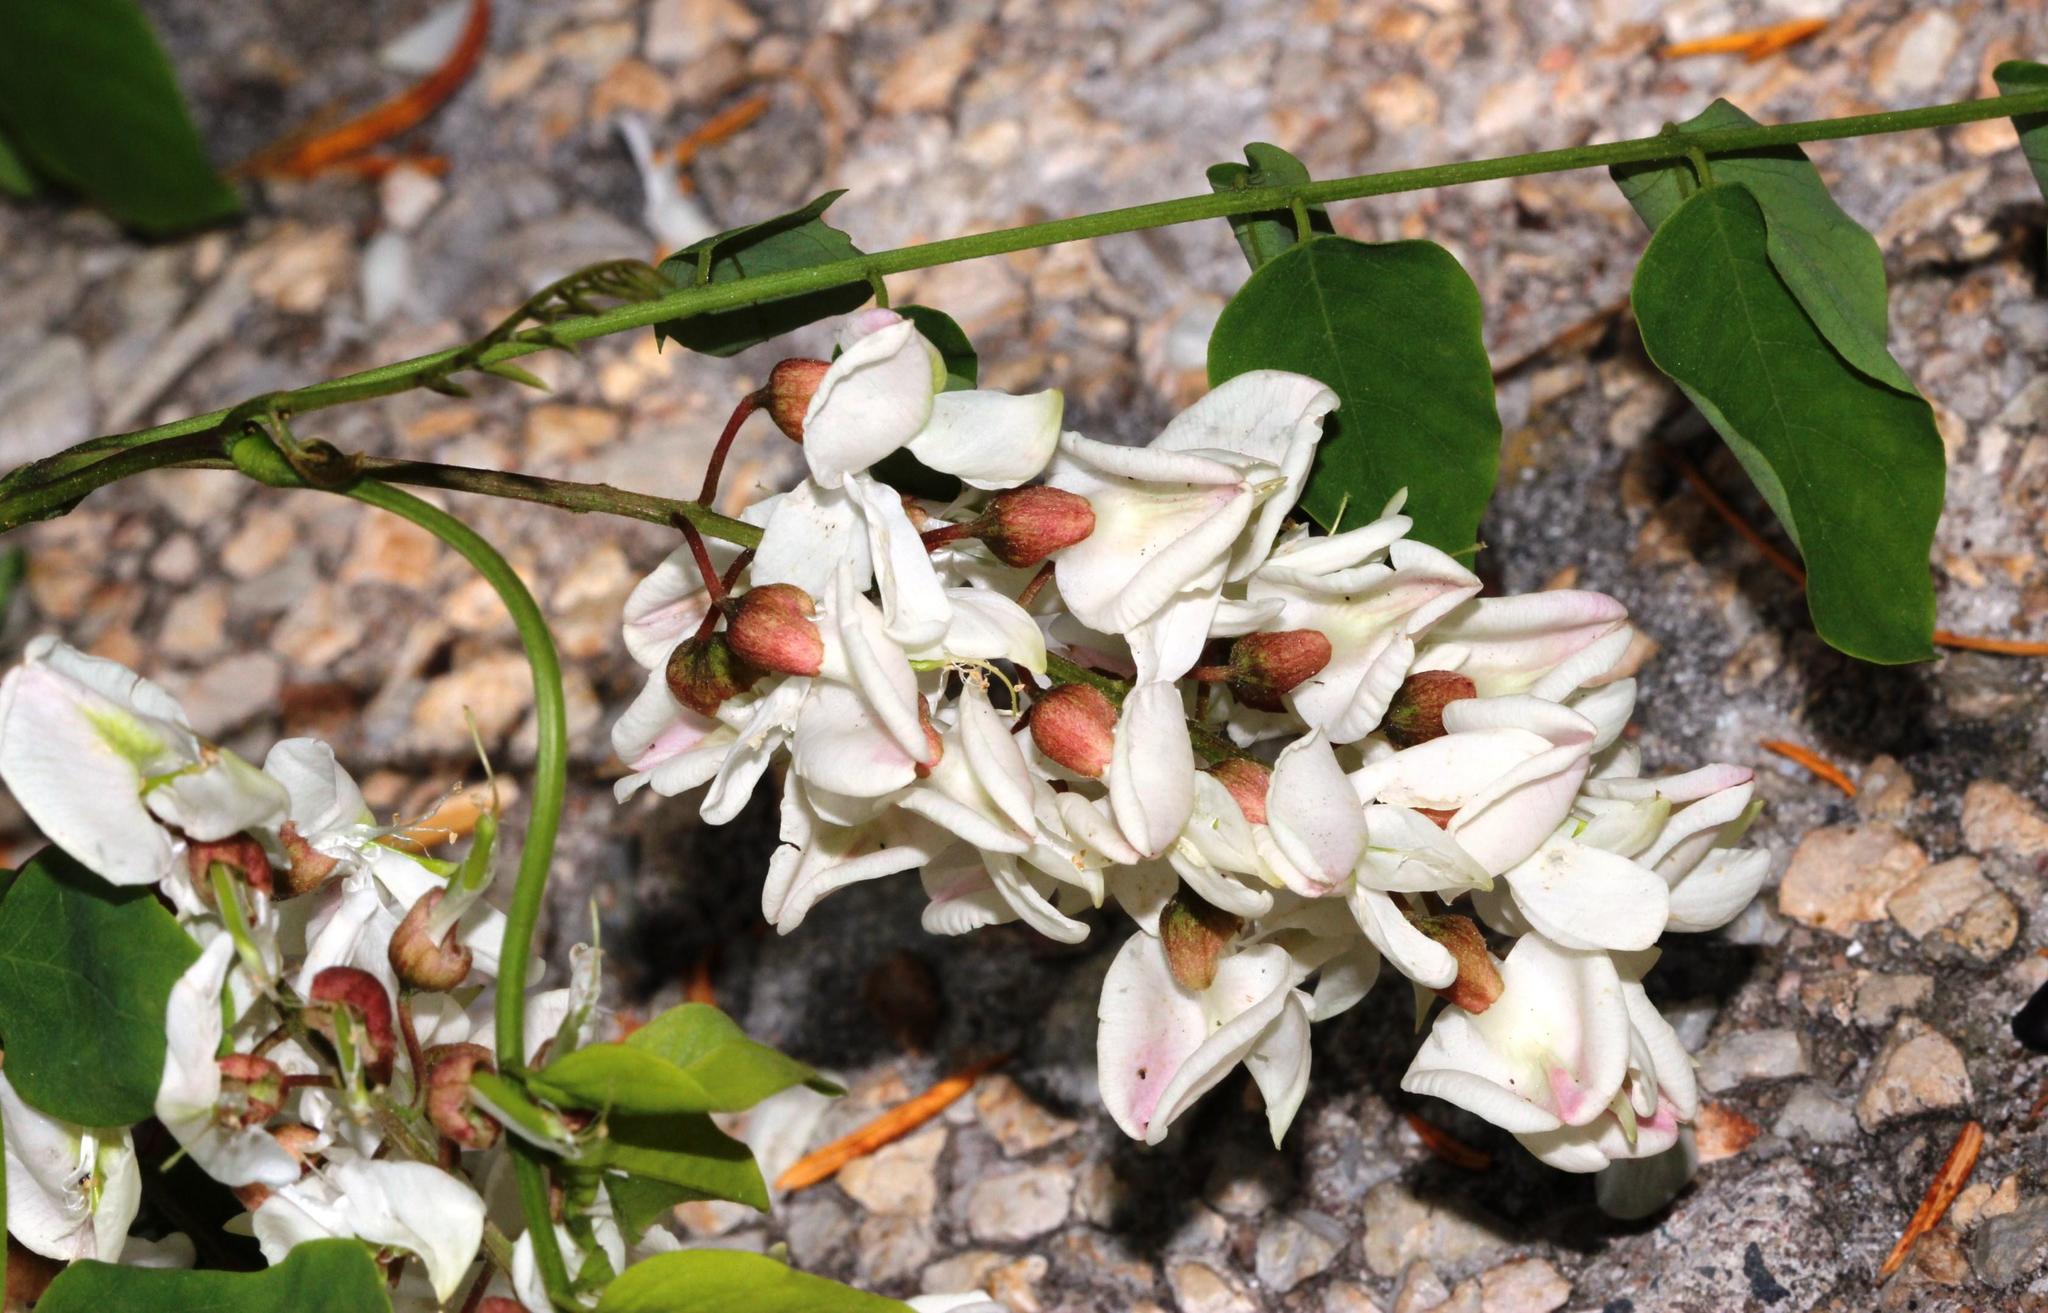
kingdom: Plantae
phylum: Tracheophyta
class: Magnoliopsida
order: Fabales
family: Fabaceae
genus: Robinia
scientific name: Robinia pseudoacacia
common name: Black locust
